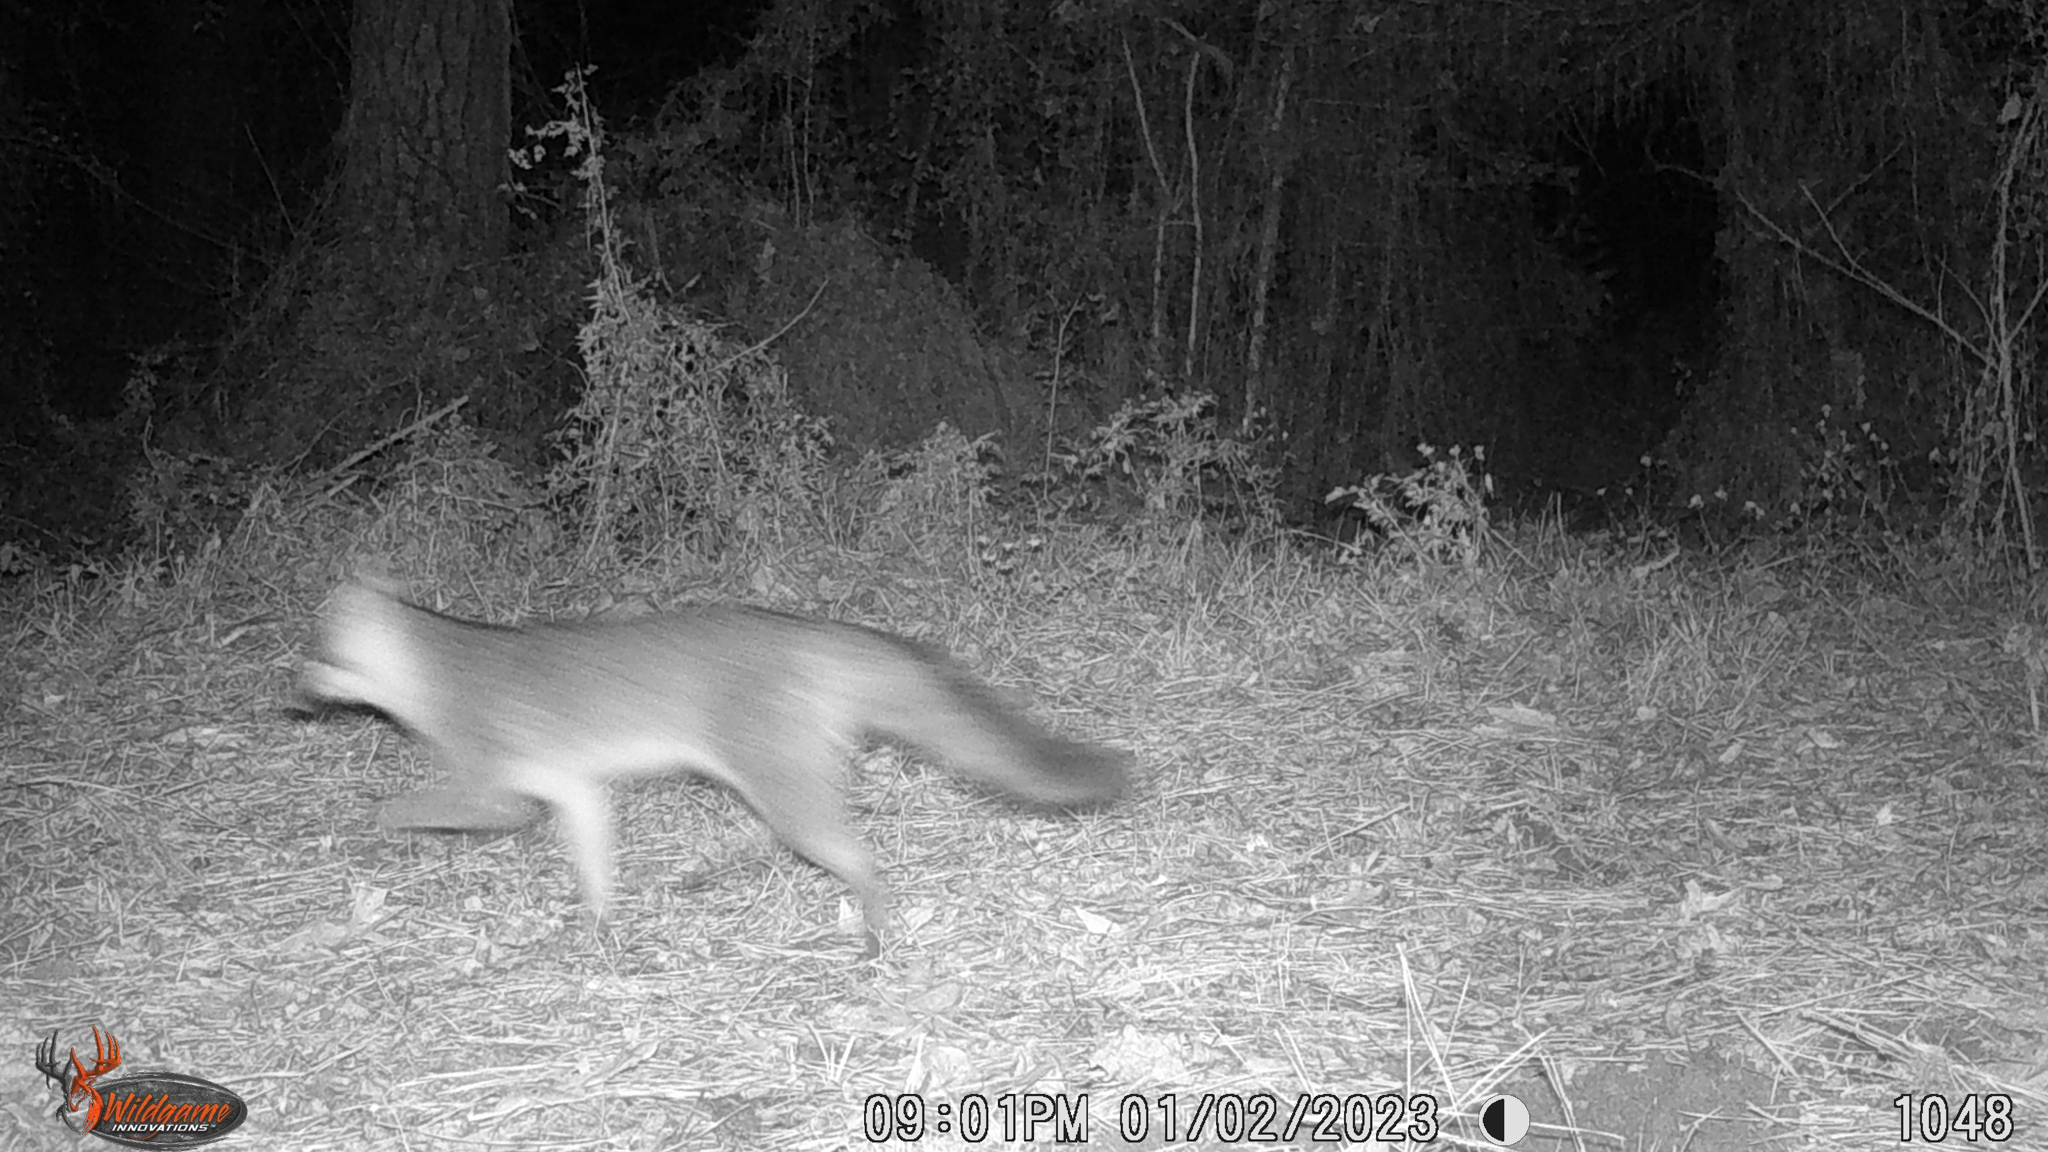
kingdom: Animalia
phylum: Chordata
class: Mammalia
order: Carnivora
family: Canidae
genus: Urocyon
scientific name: Urocyon cinereoargenteus
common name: Gray fox
